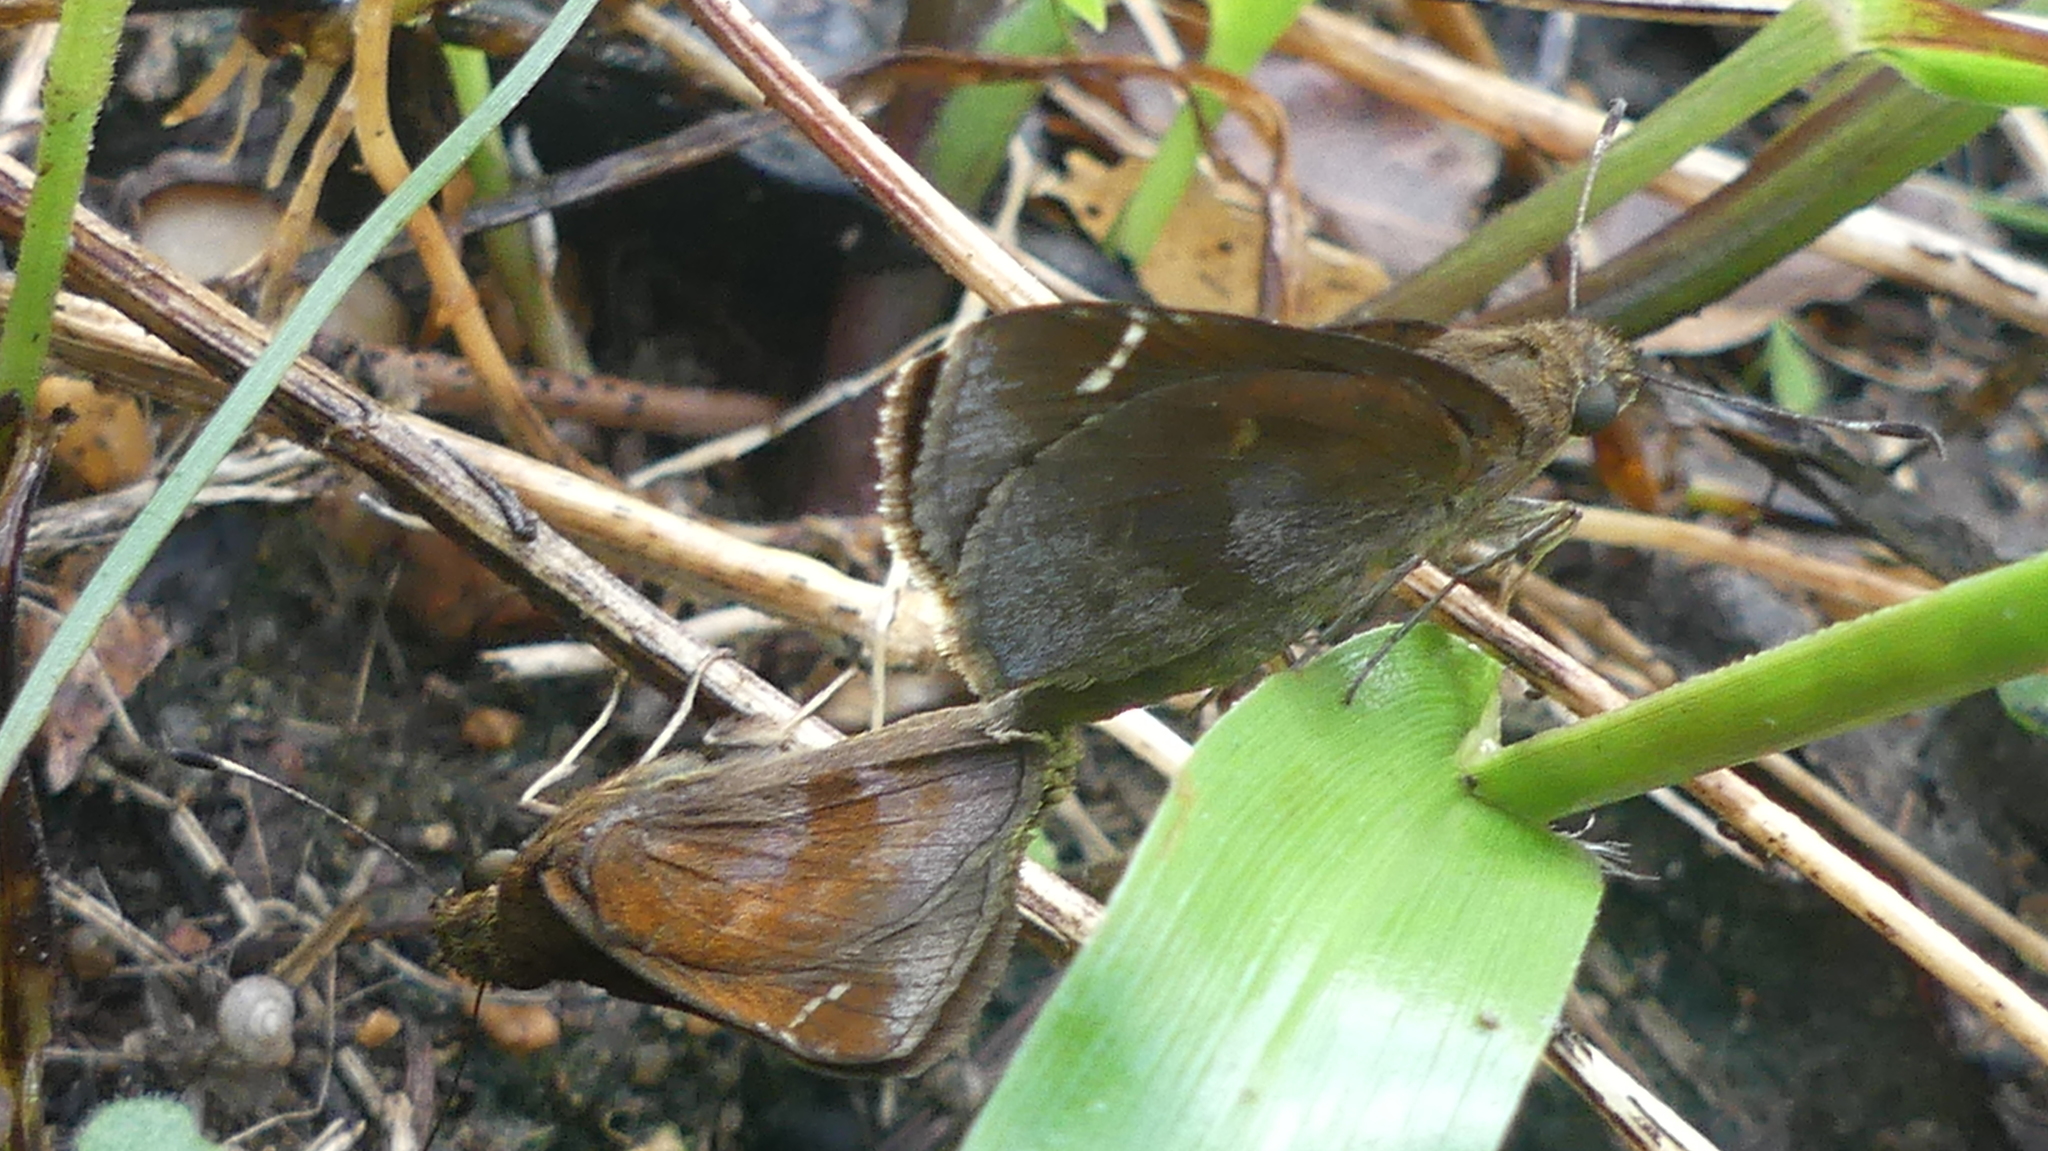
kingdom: Animalia
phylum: Arthropoda
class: Insecta
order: Lepidoptera
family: Hesperiidae
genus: Lerema
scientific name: Lerema accius
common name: Clouded skipper
